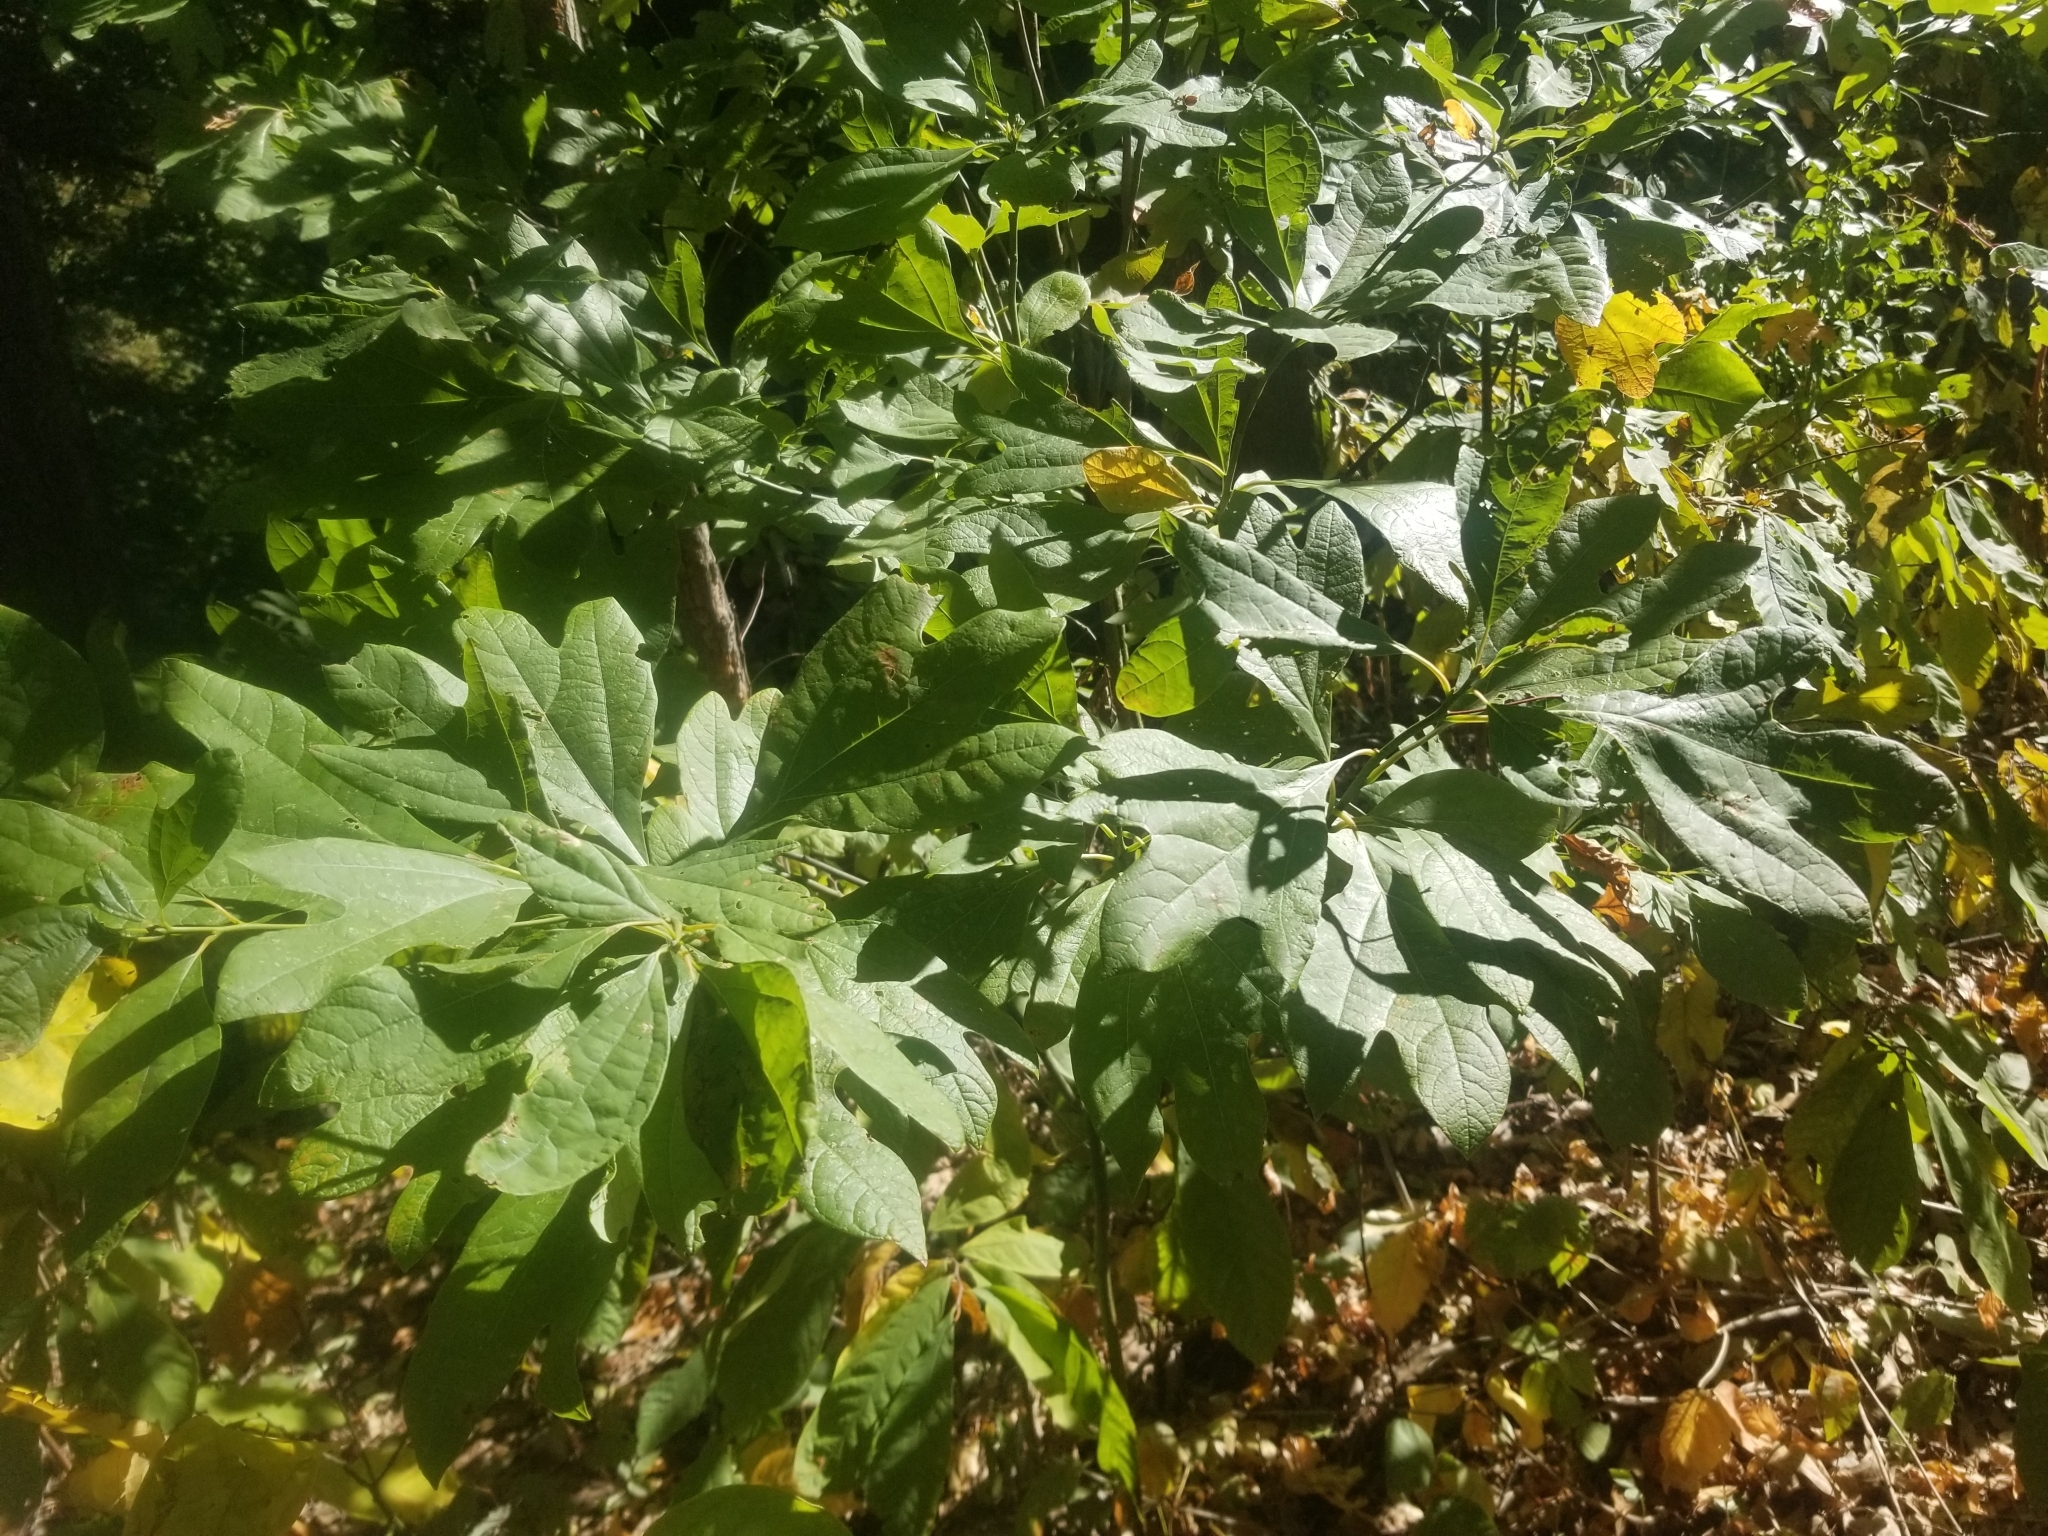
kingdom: Plantae
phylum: Tracheophyta
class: Magnoliopsida
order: Laurales
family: Lauraceae
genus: Sassafras
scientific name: Sassafras albidum
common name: Sassafras
